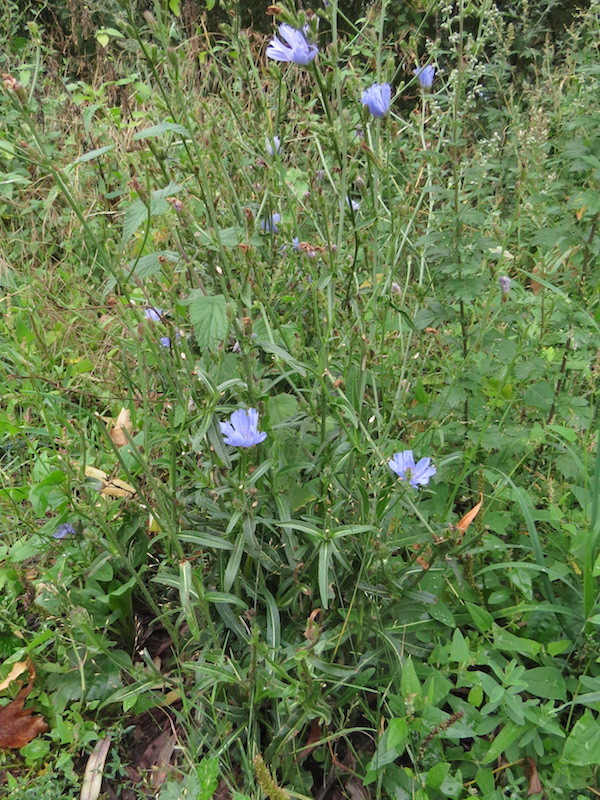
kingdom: Plantae
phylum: Tracheophyta
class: Magnoliopsida
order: Asterales
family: Asteraceae
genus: Cichorium
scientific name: Cichorium intybus
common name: Chicory
